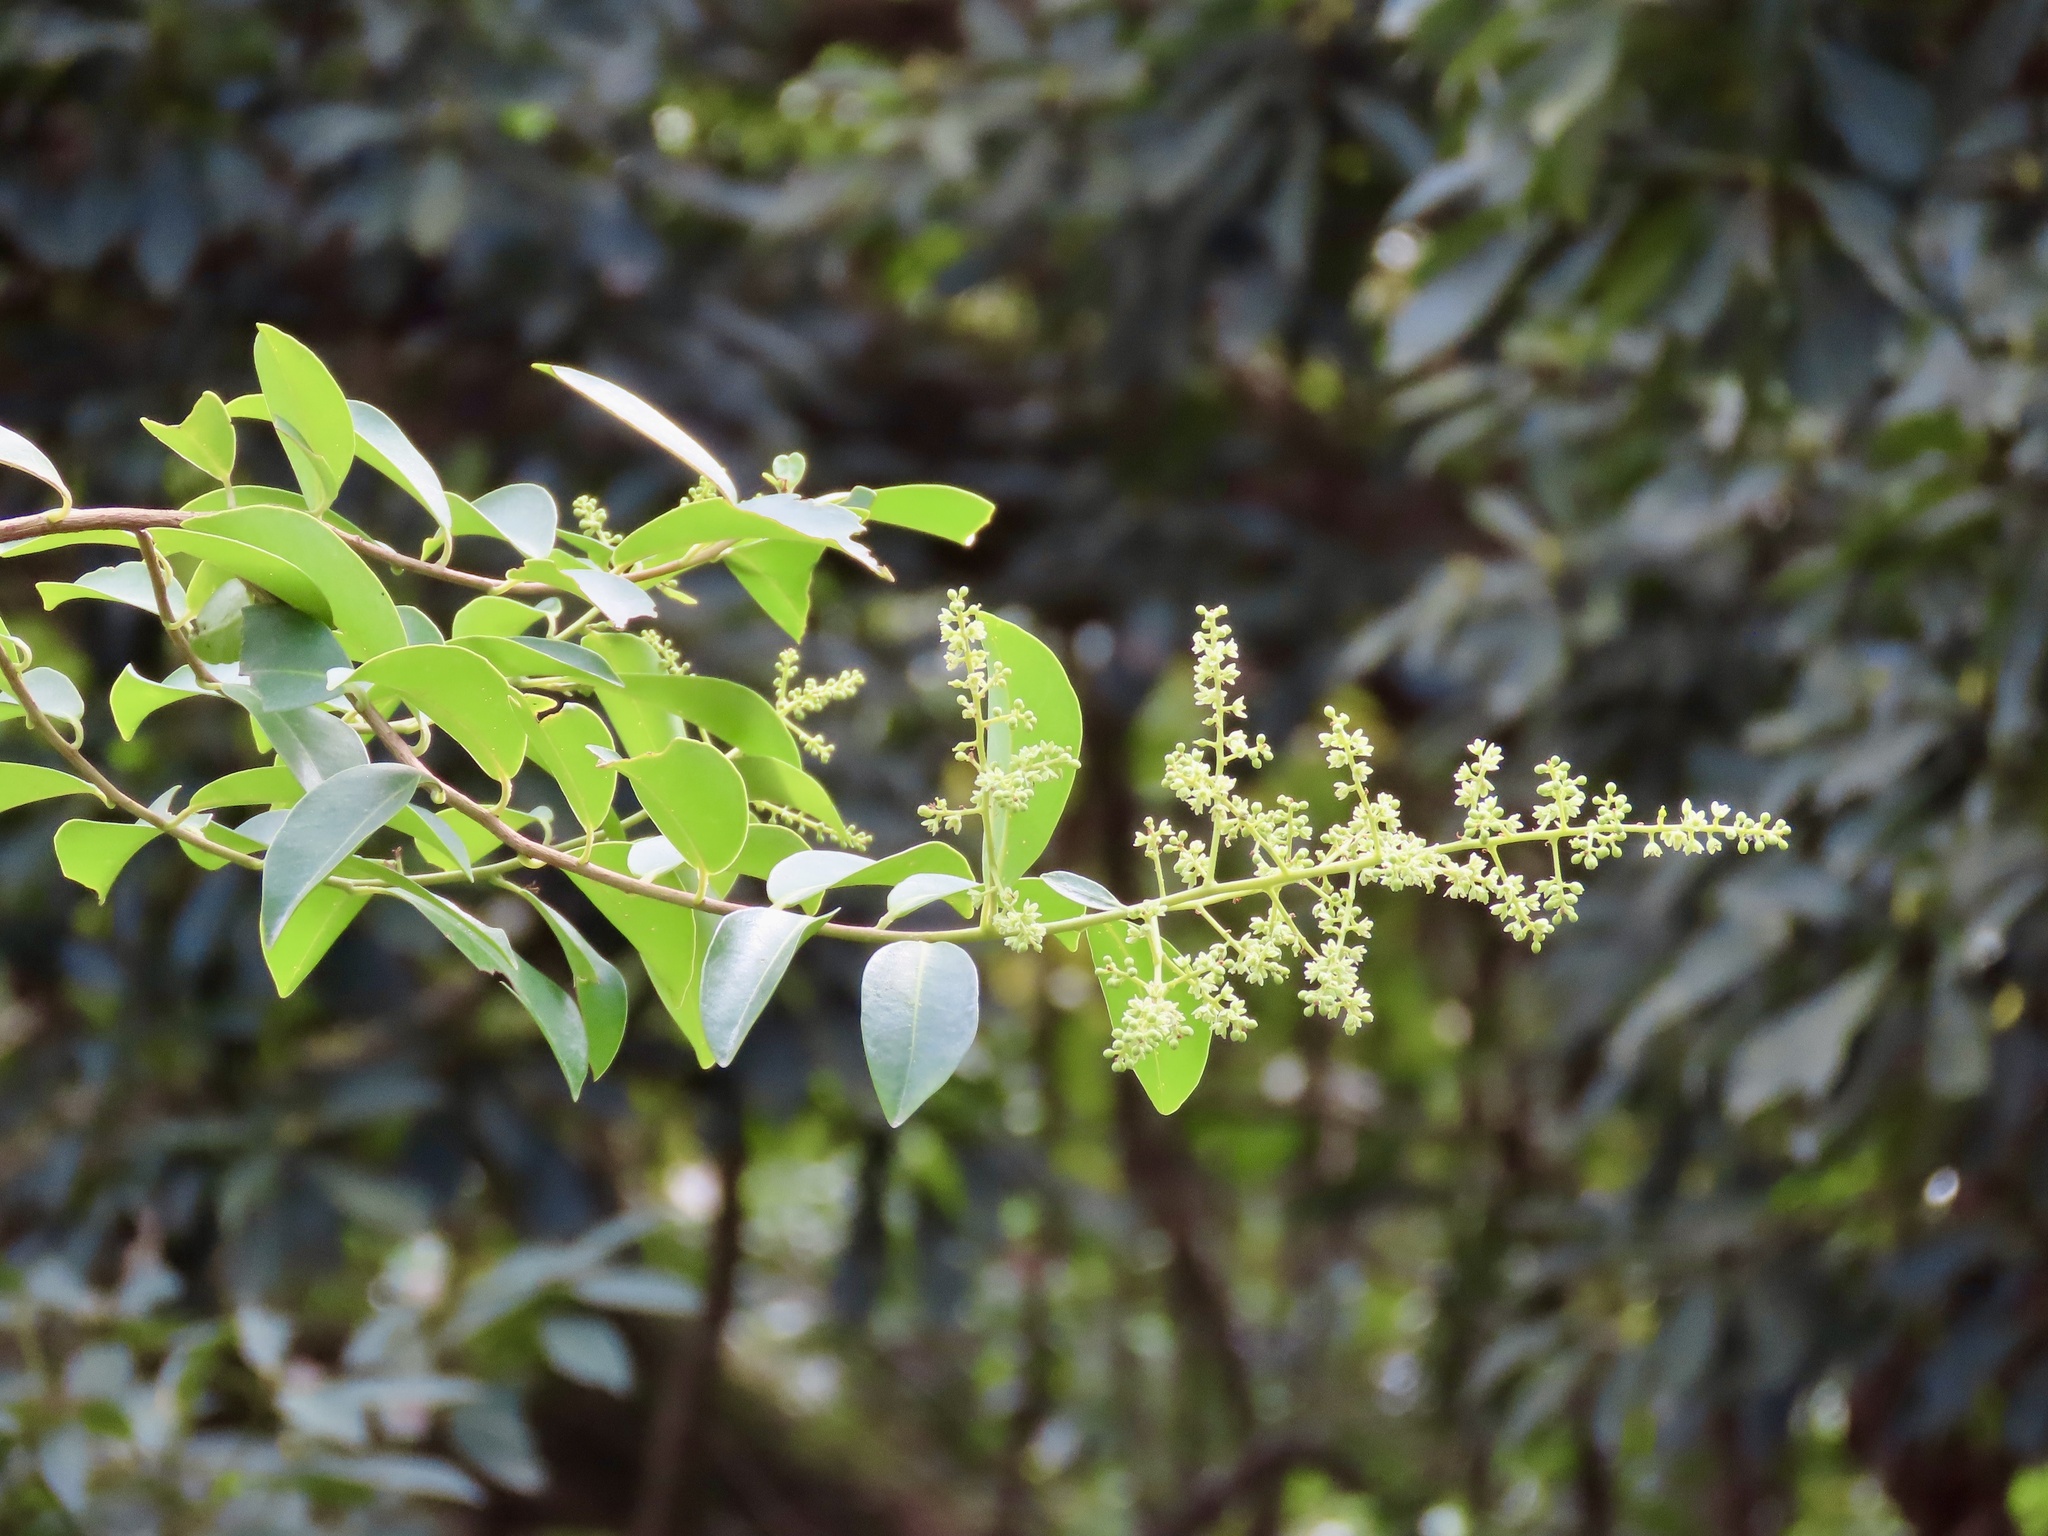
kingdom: Plantae
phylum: Tracheophyta
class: Magnoliopsida
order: Ericales
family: Primulaceae
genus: Embelia
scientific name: Embelia ribes
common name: Vidanga
